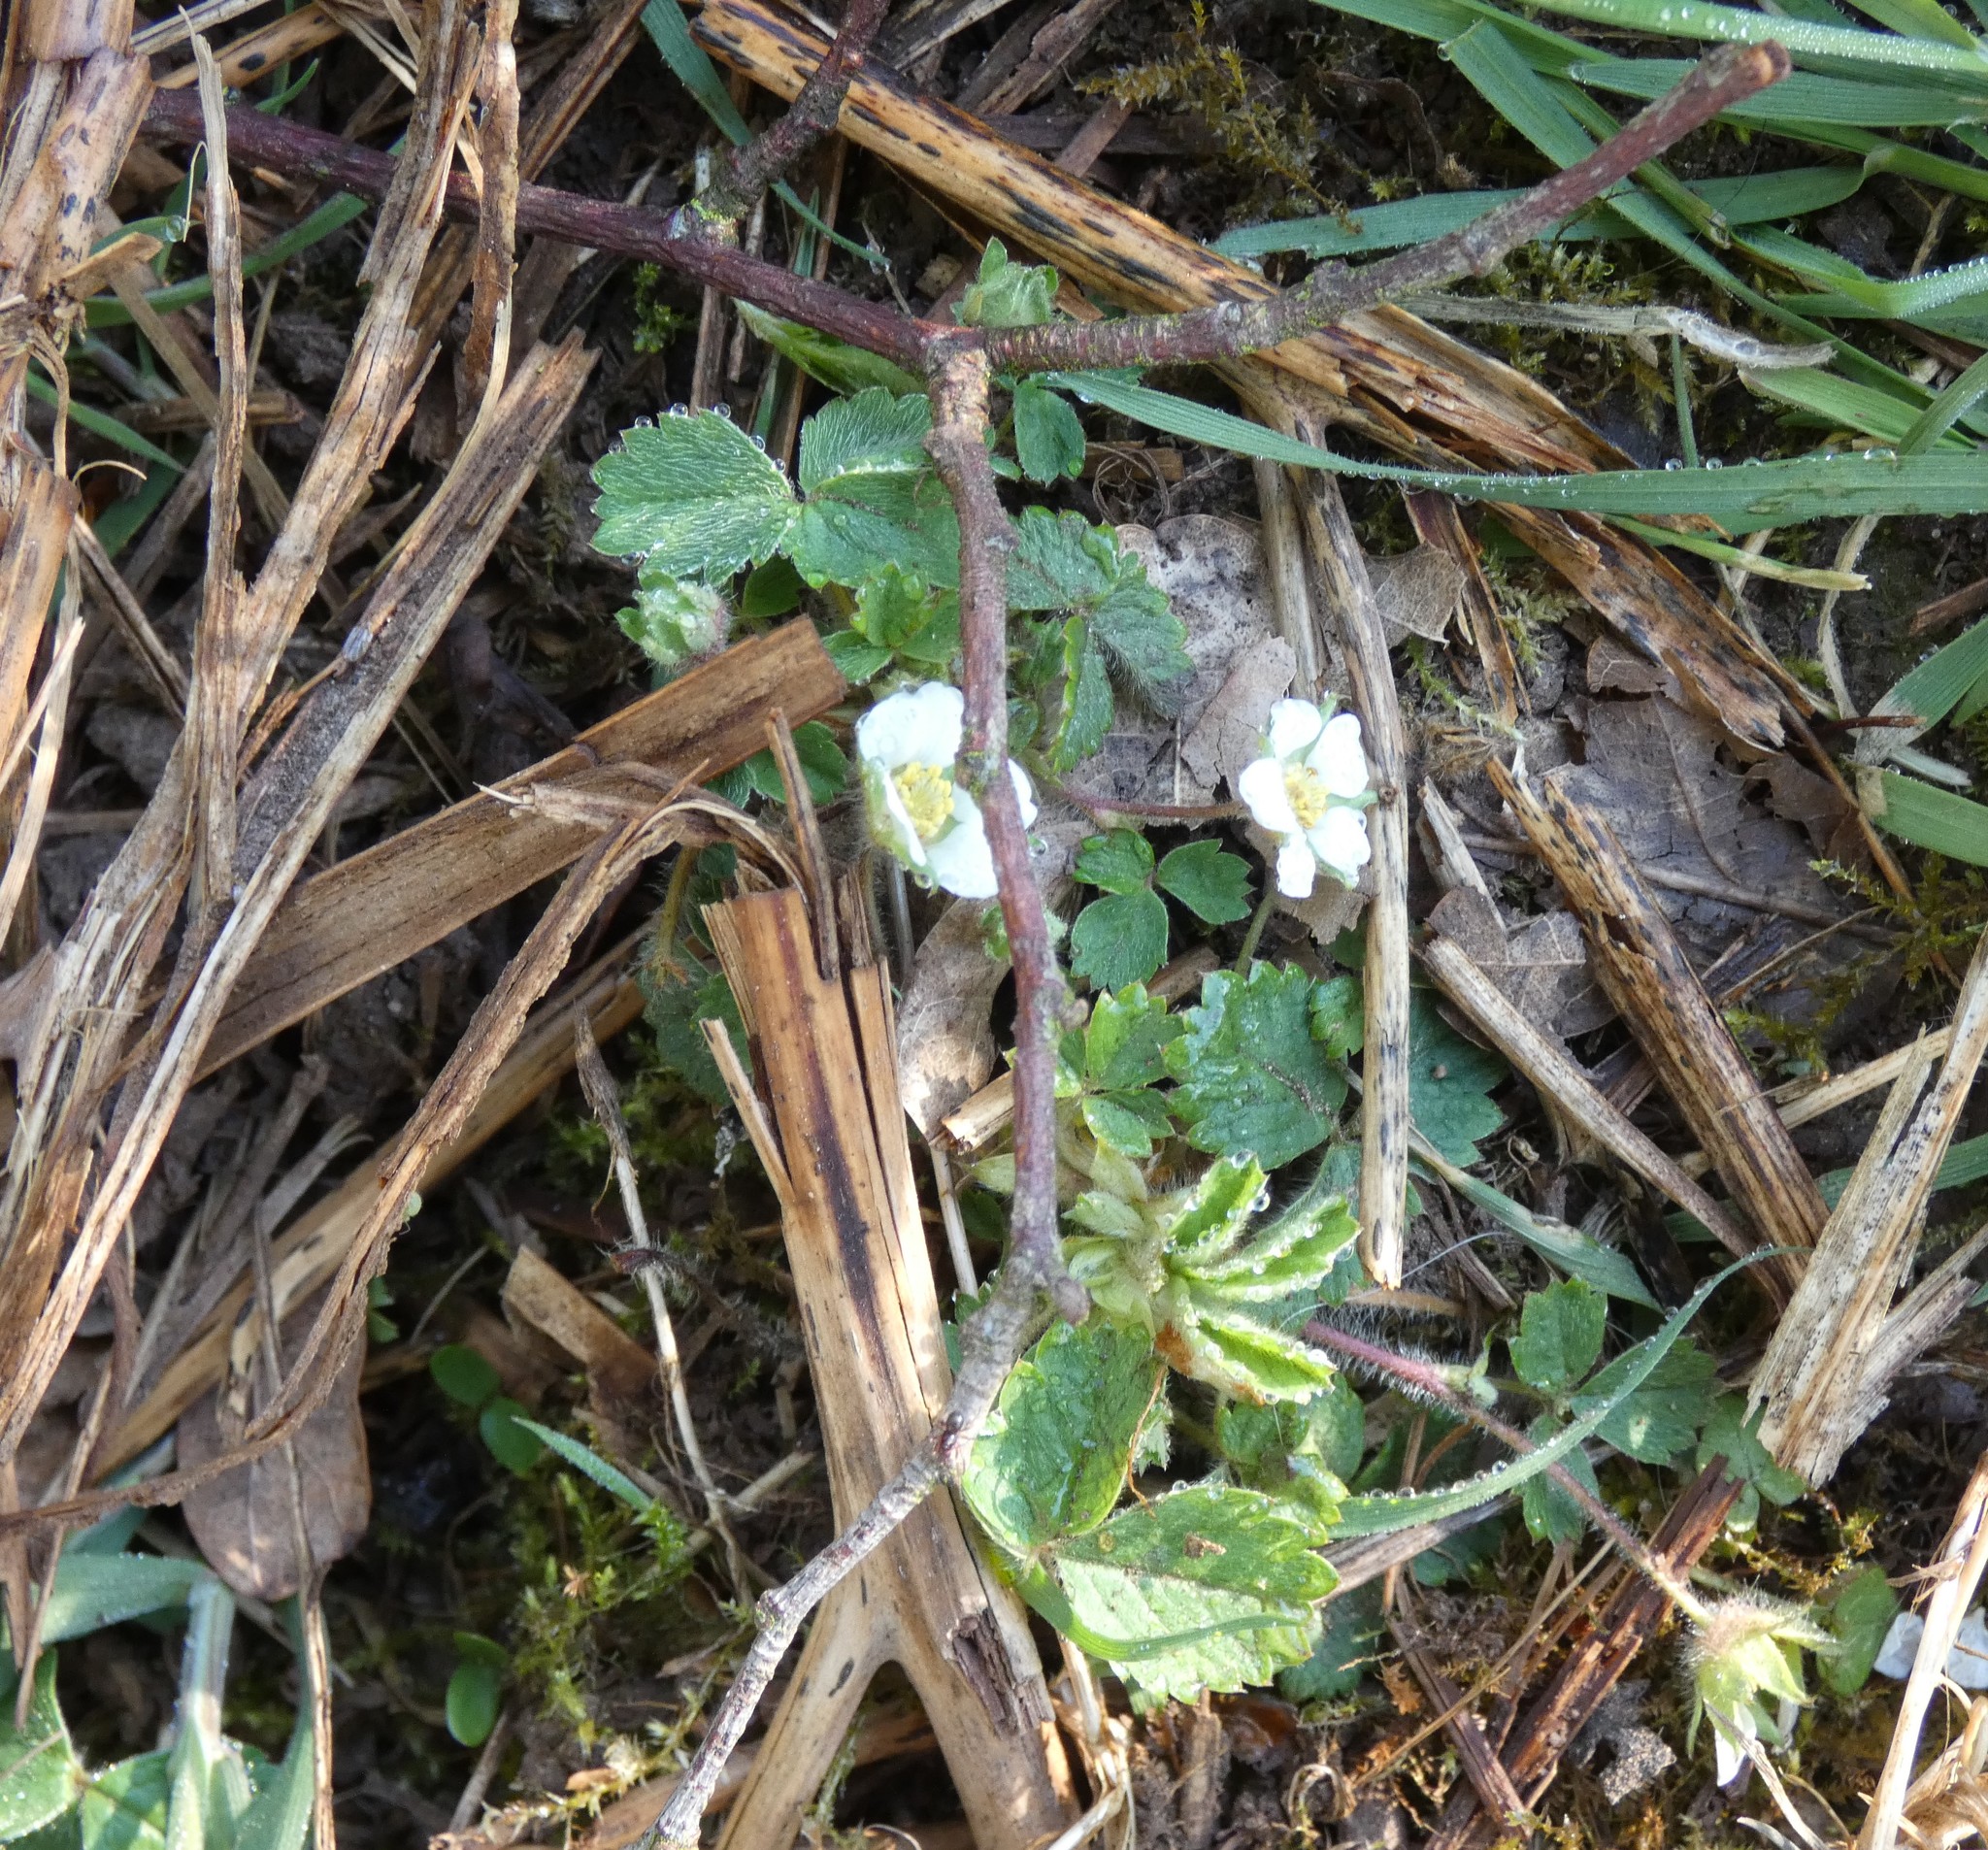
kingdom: Plantae
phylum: Tracheophyta
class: Magnoliopsida
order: Rosales
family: Rosaceae
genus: Potentilla
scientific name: Potentilla sterilis
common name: Barren strawberry
